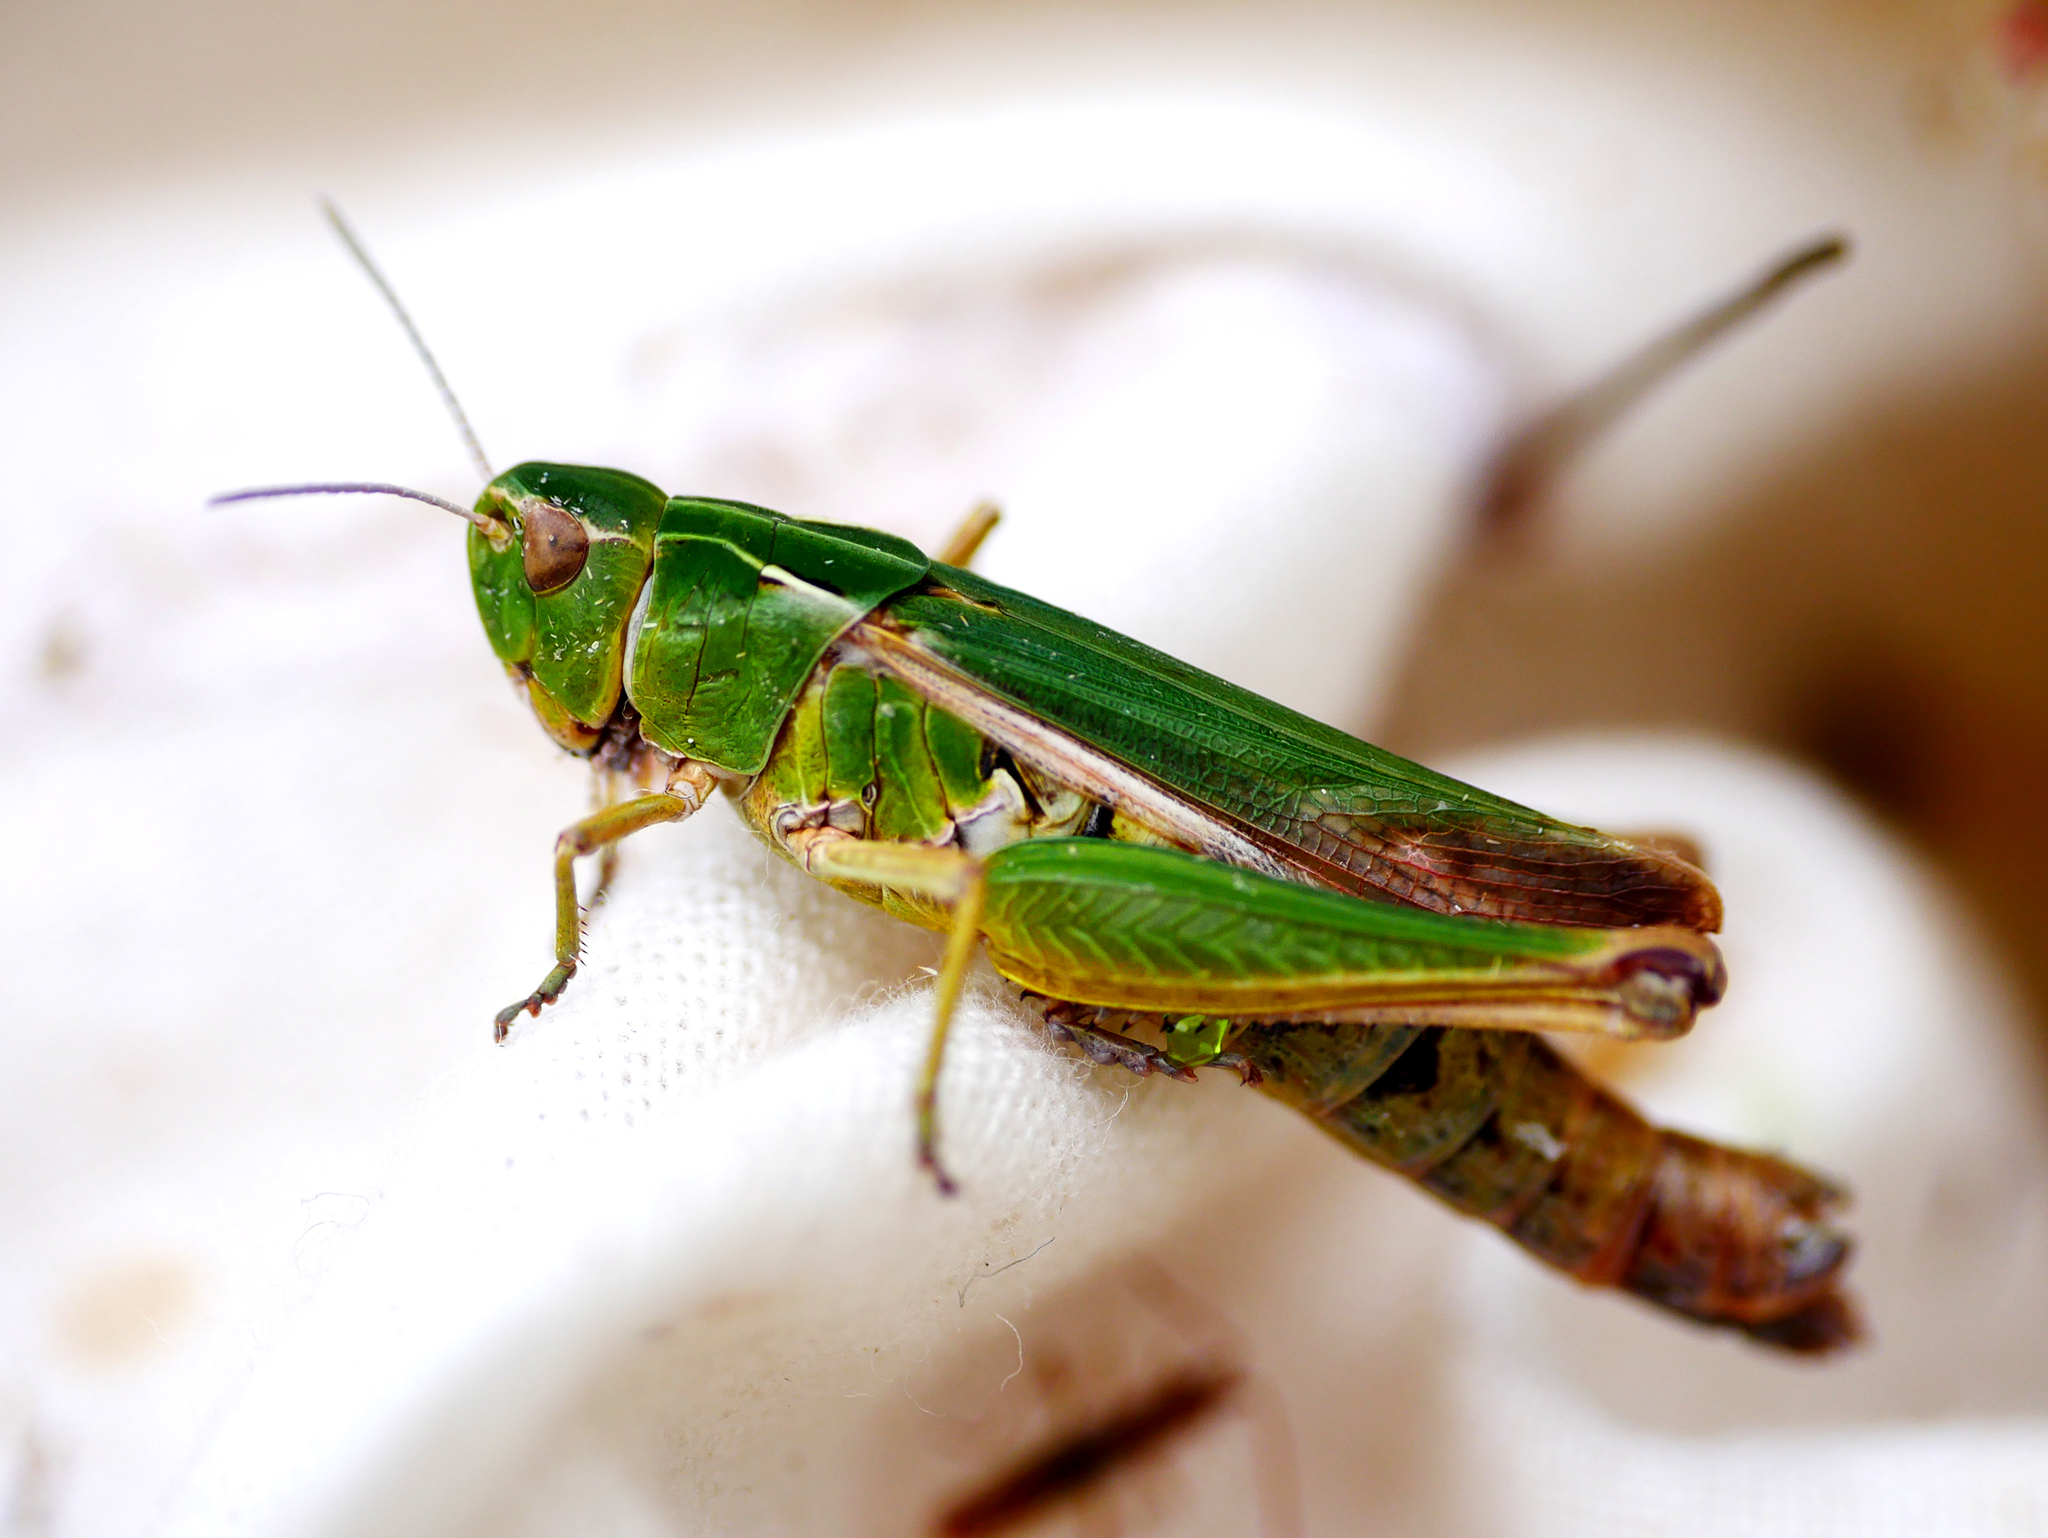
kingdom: Animalia
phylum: Arthropoda
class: Insecta
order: Orthoptera
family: Acrididae
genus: Omocestus
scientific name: Omocestus viridulus
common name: Common green grasshopper
